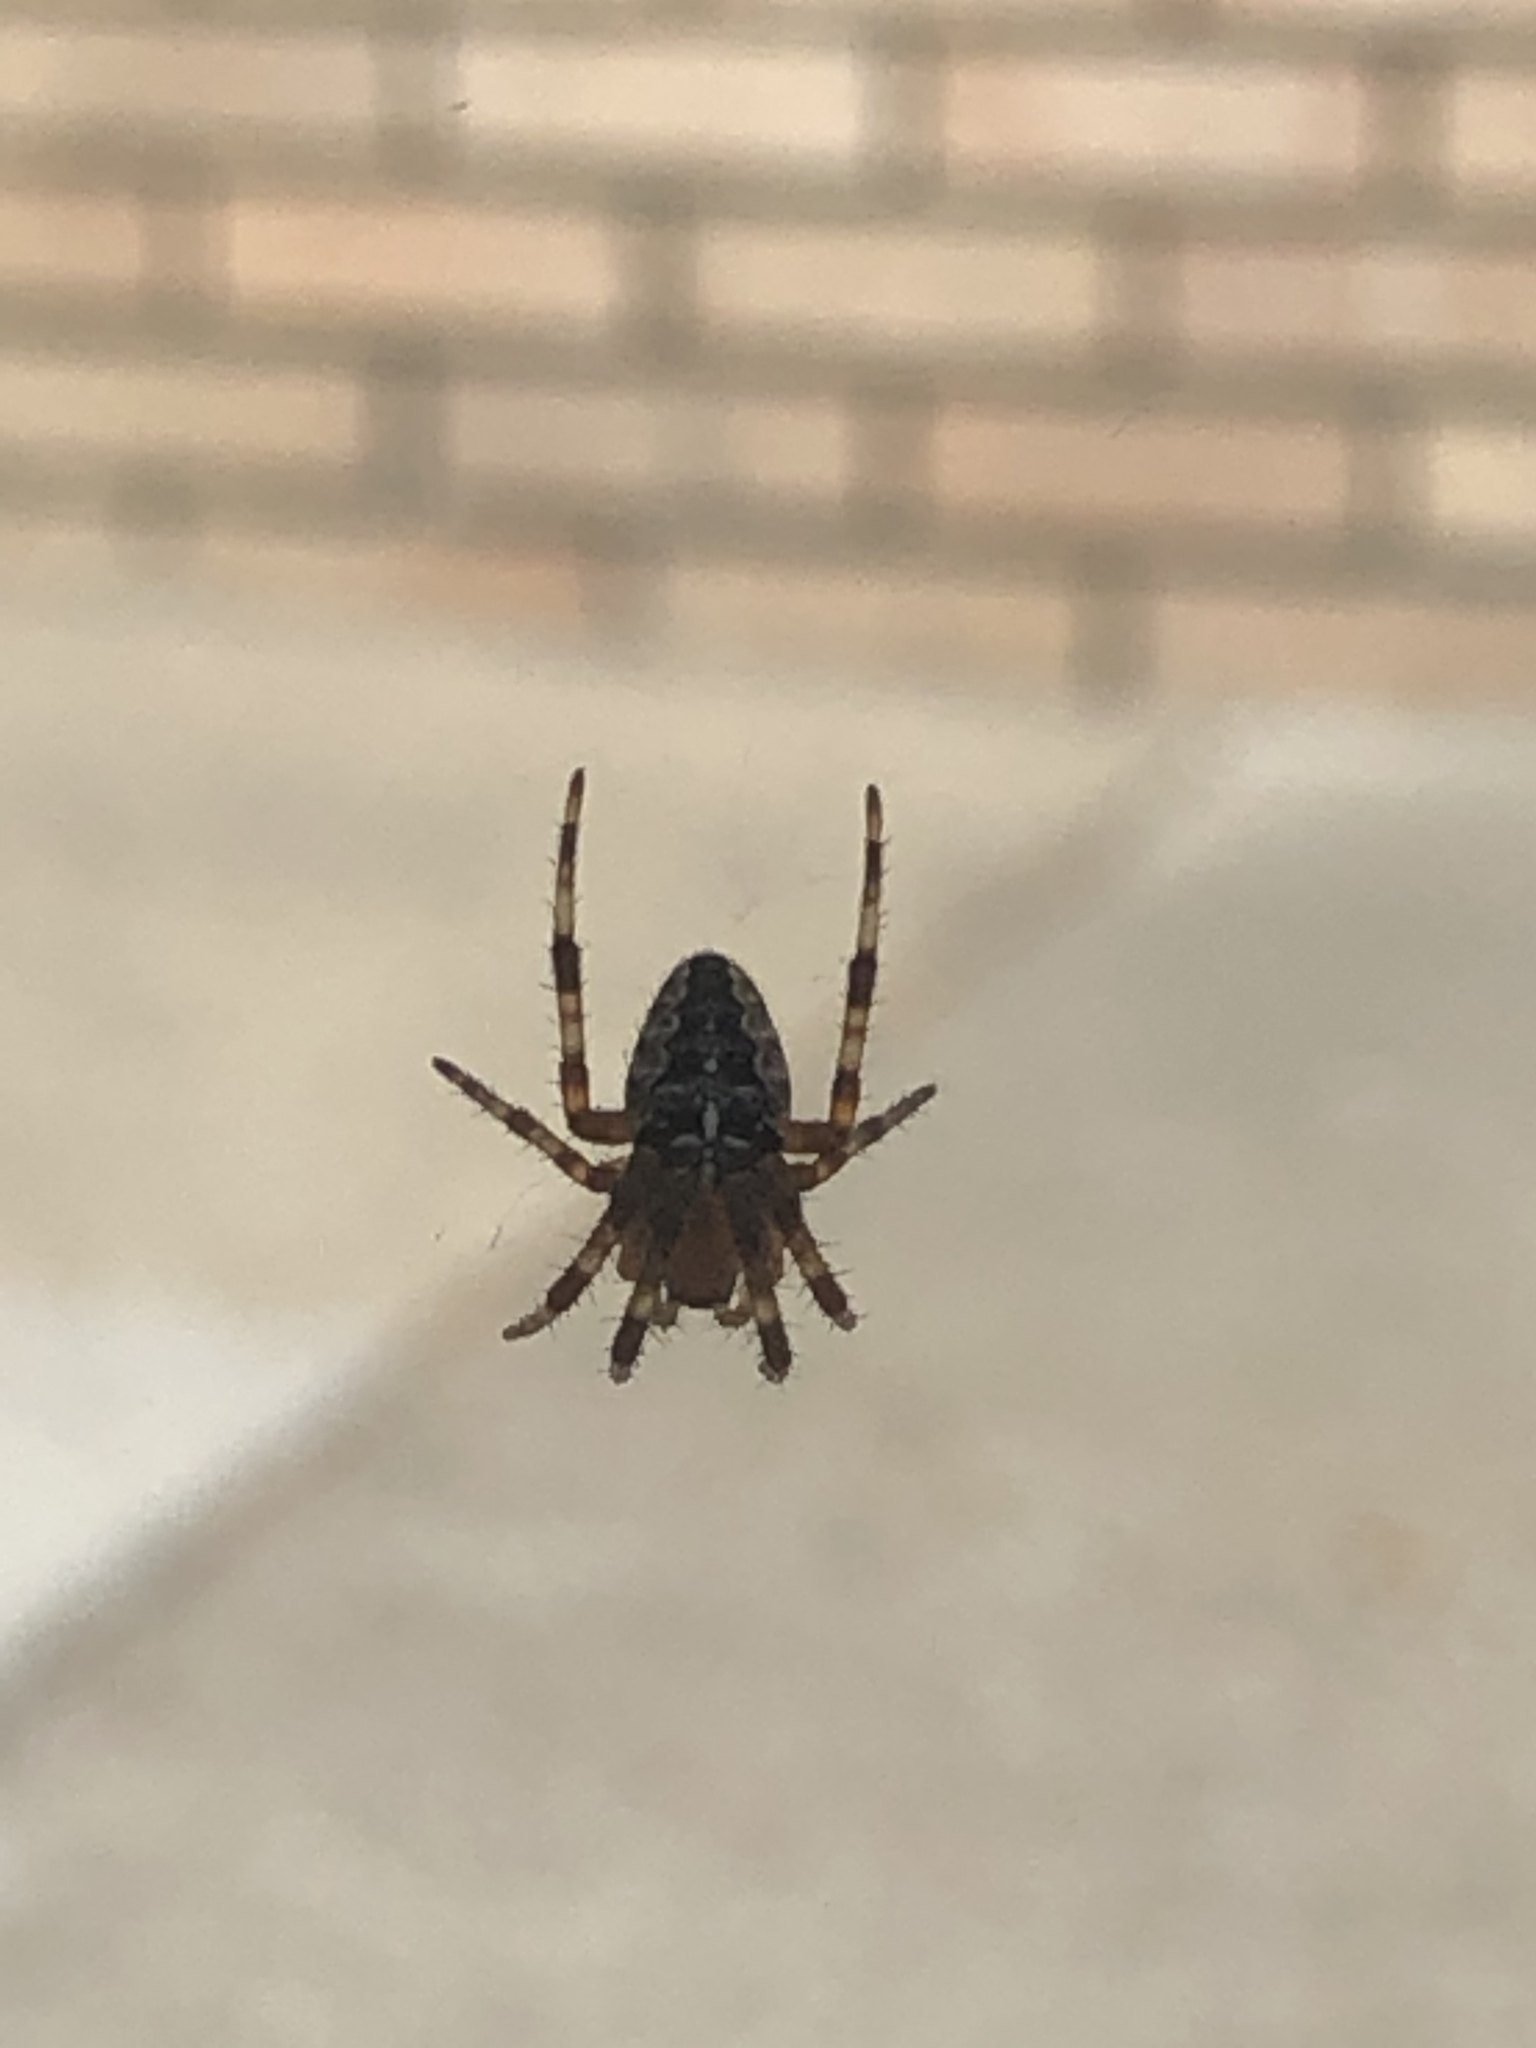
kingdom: Animalia
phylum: Arthropoda
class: Arachnida
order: Araneae
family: Araneidae
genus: Araneus
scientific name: Araneus diadematus
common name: Cross orbweaver
